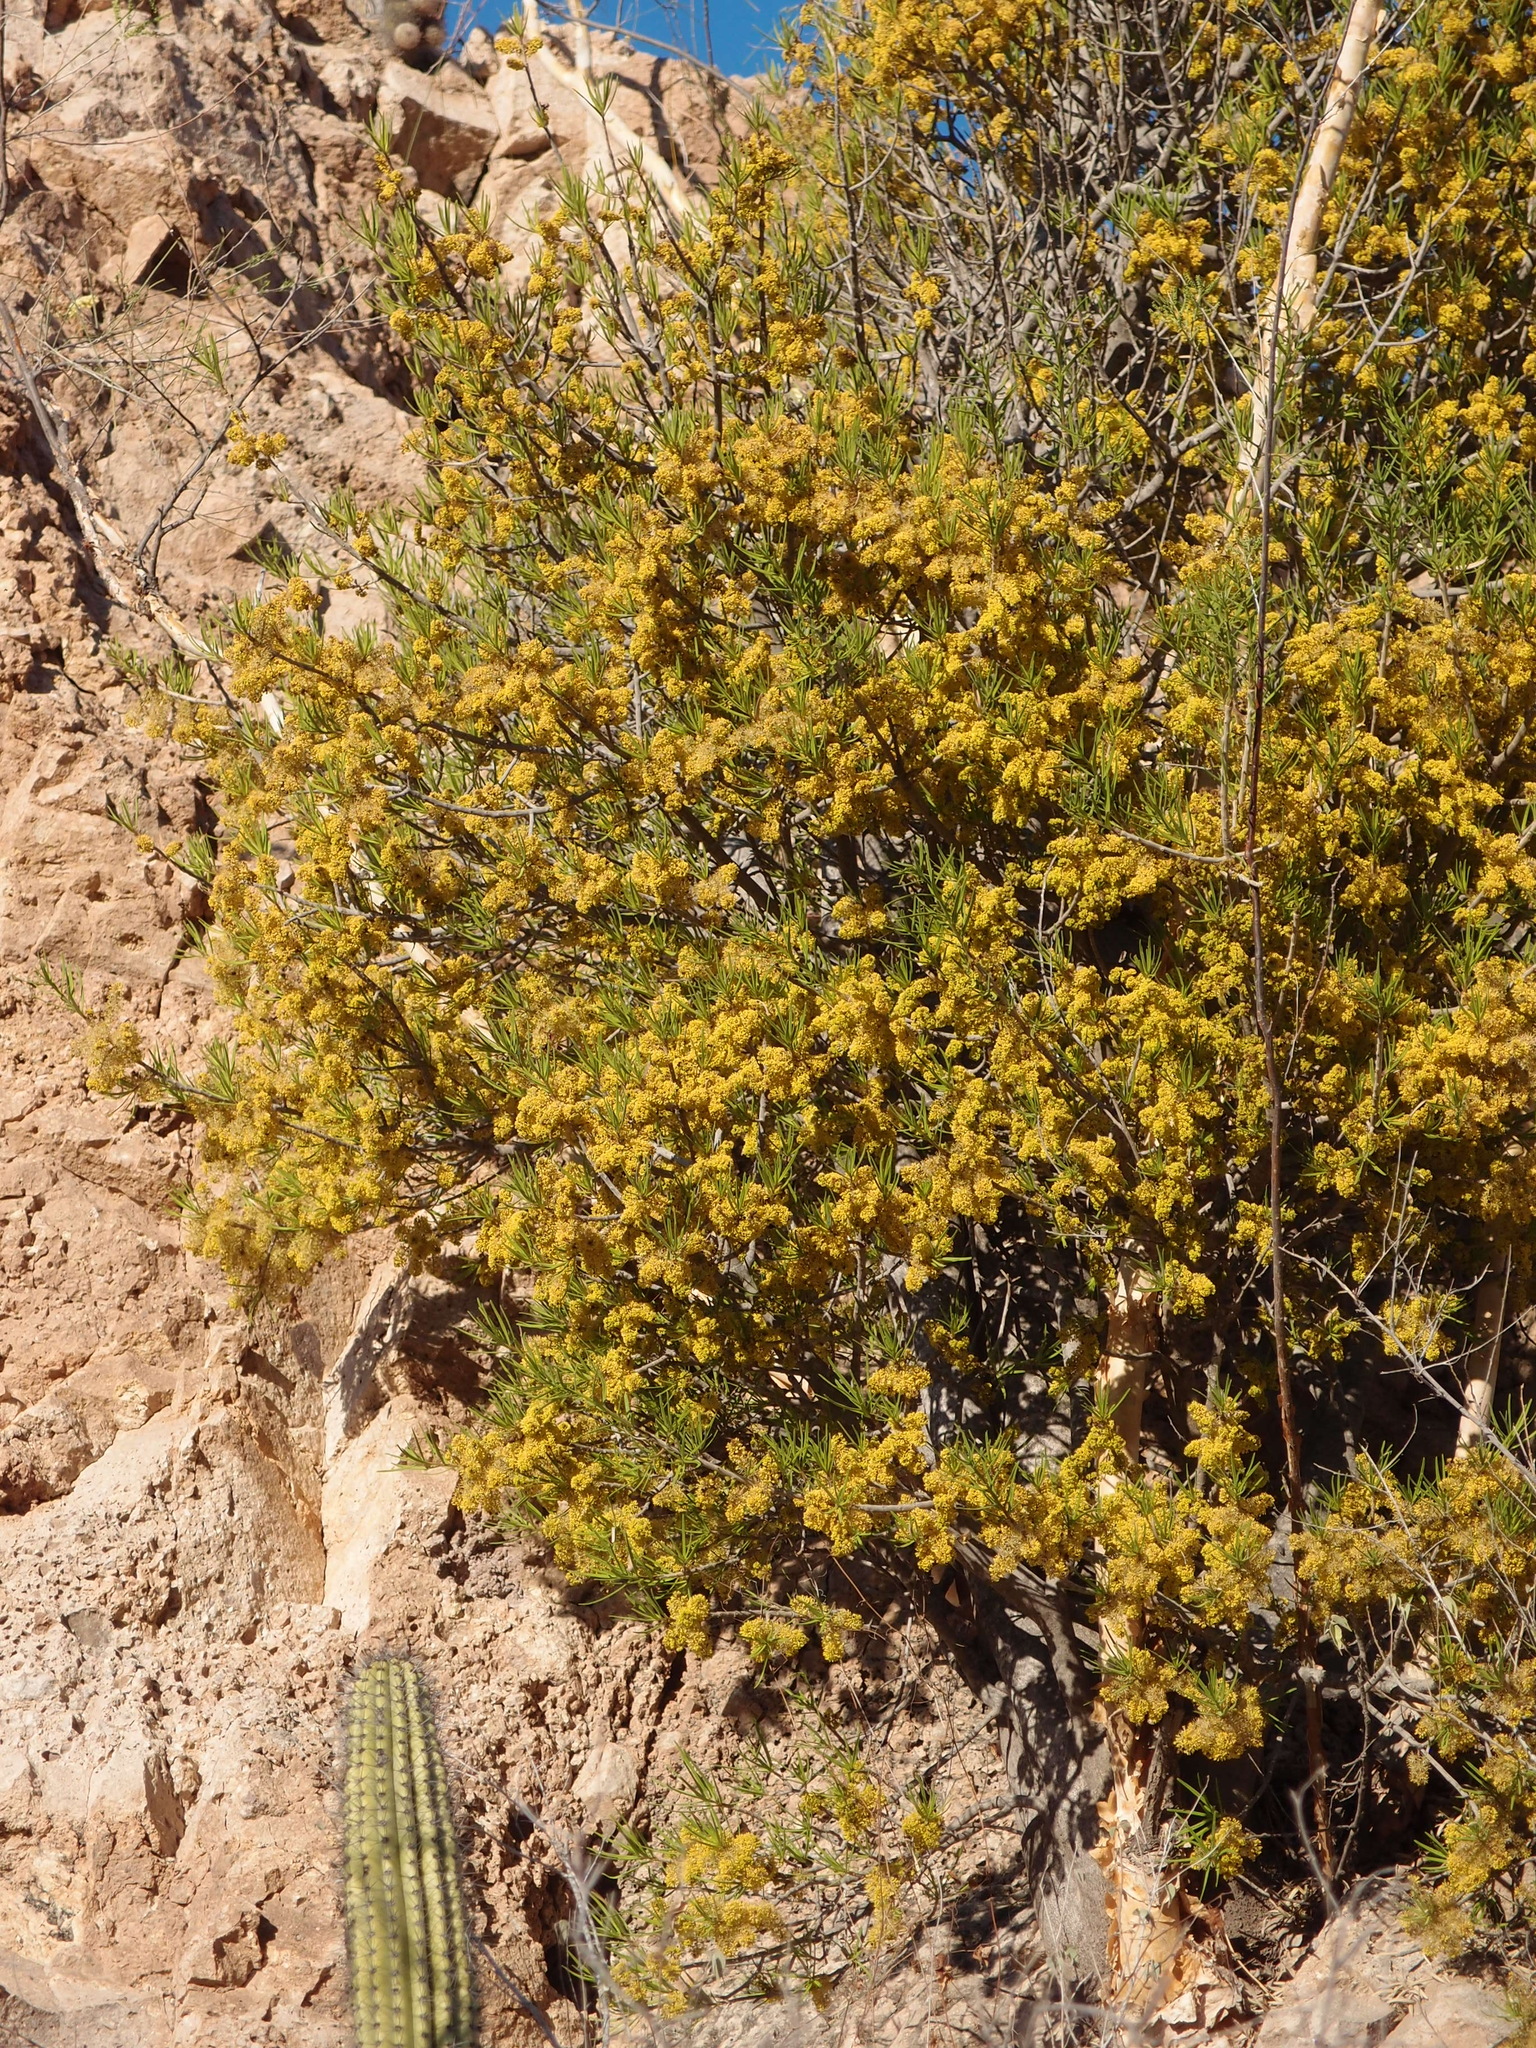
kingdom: Plantae
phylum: Tracheophyta
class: Magnoliopsida
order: Brassicales
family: Stixaceae
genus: Forchhammeria
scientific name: Forchhammeria watsonii
